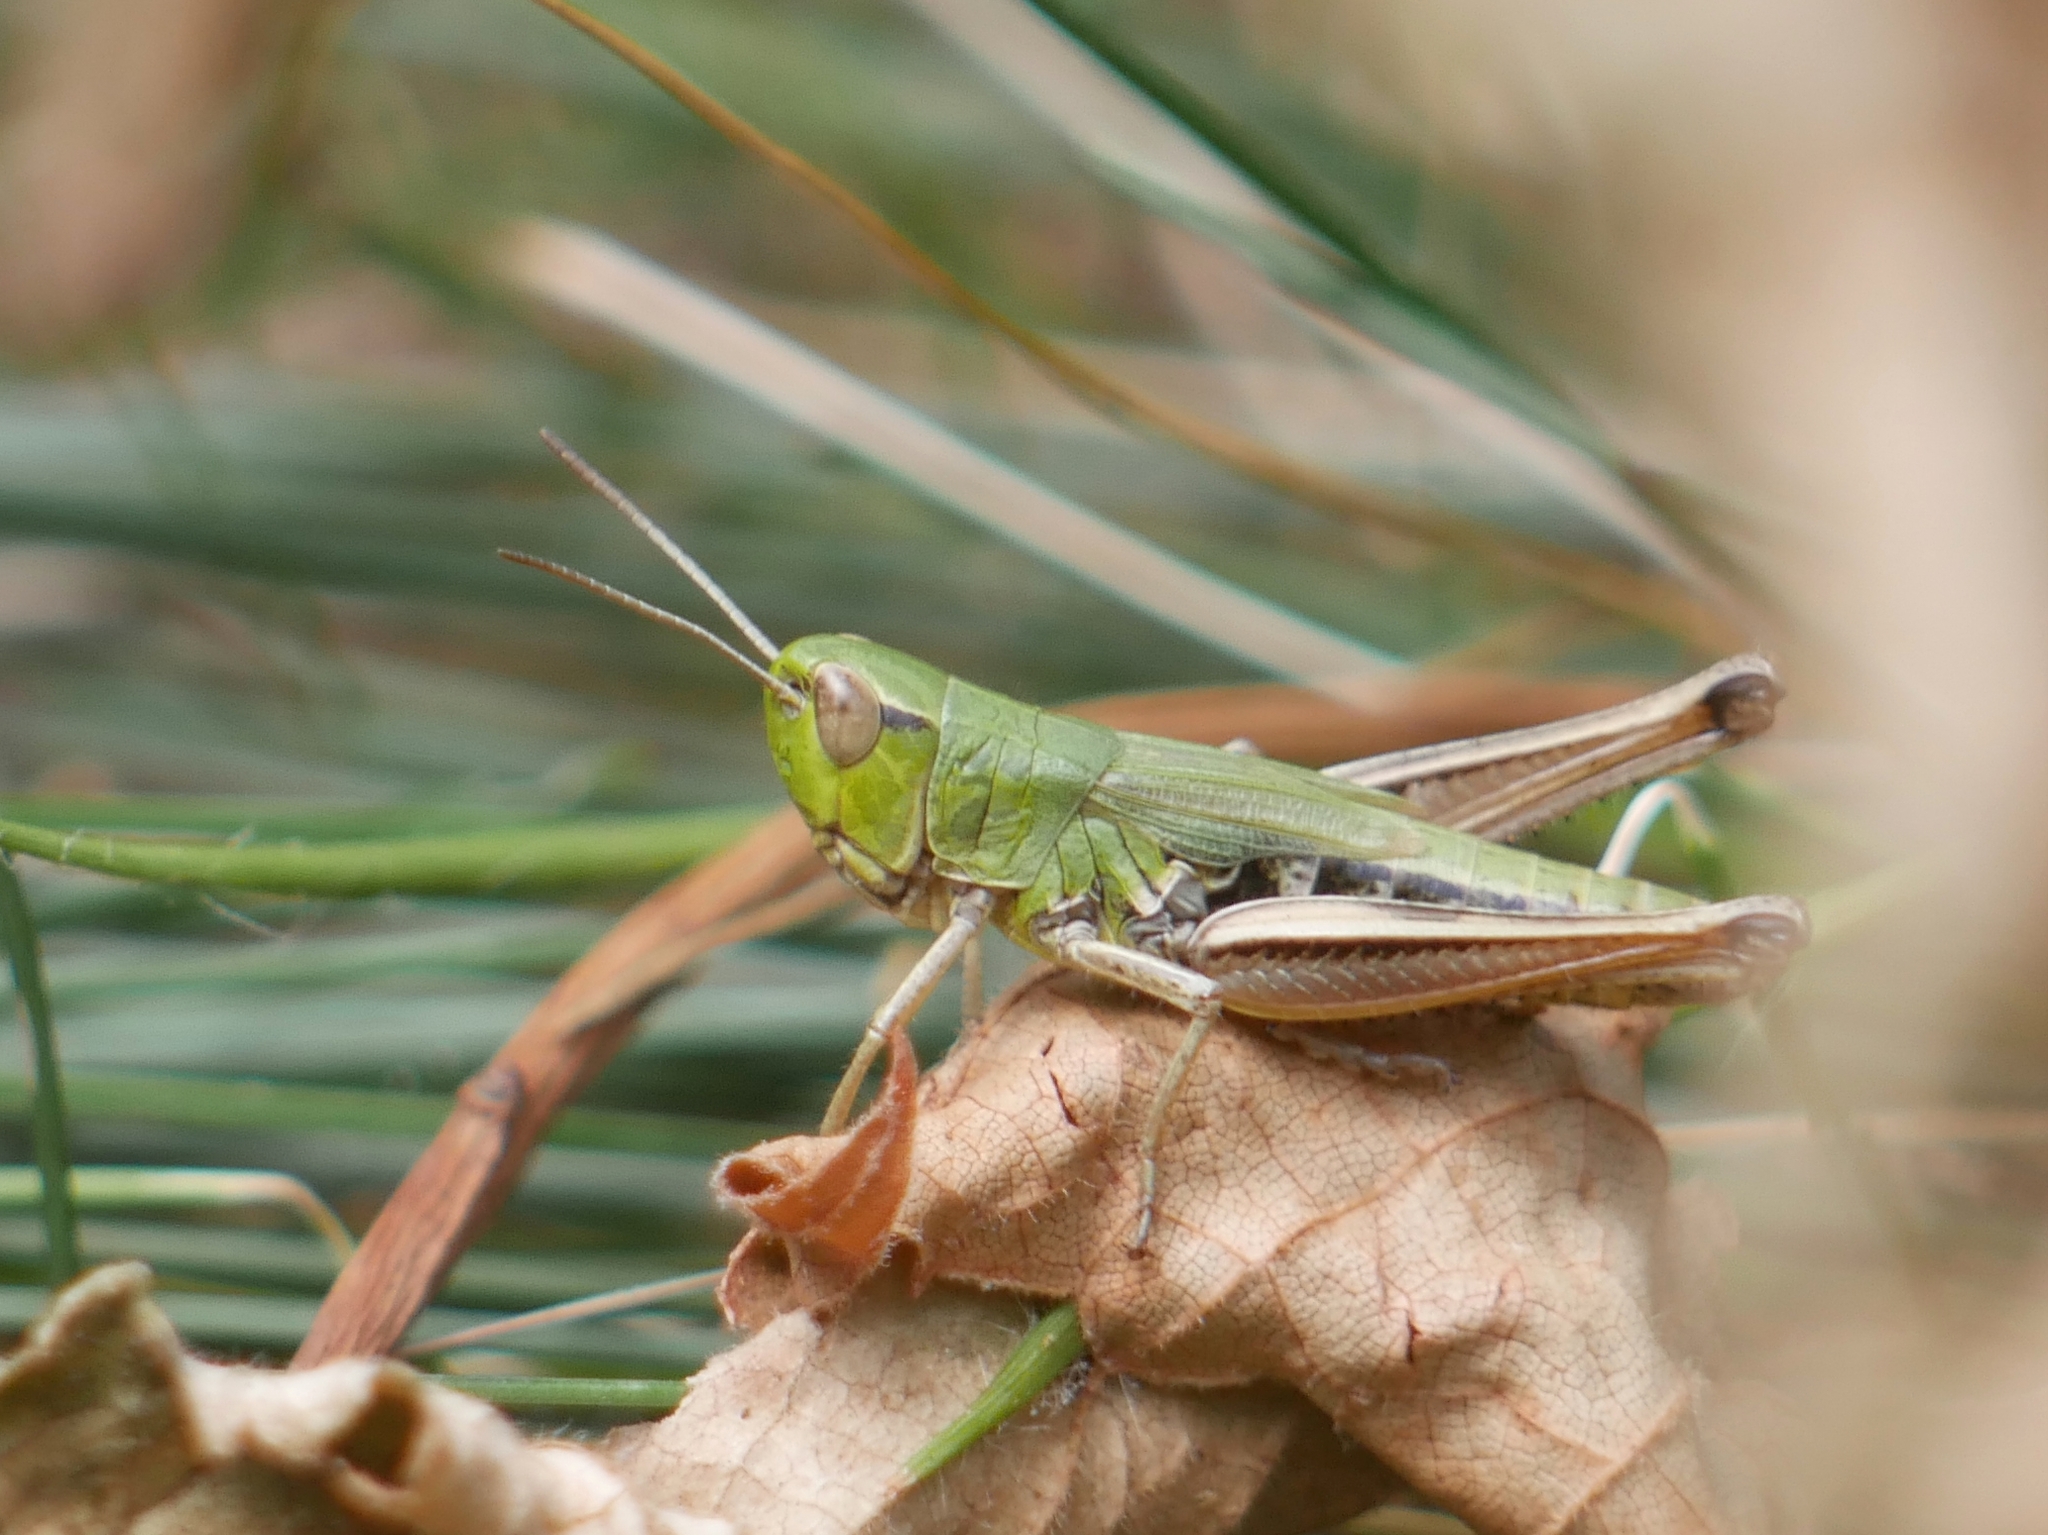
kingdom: Animalia
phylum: Arthropoda
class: Insecta
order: Orthoptera
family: Acrididae
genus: Pseudochorthippus
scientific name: Pseudochorthippus parallelus
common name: Meadow grasshopper
